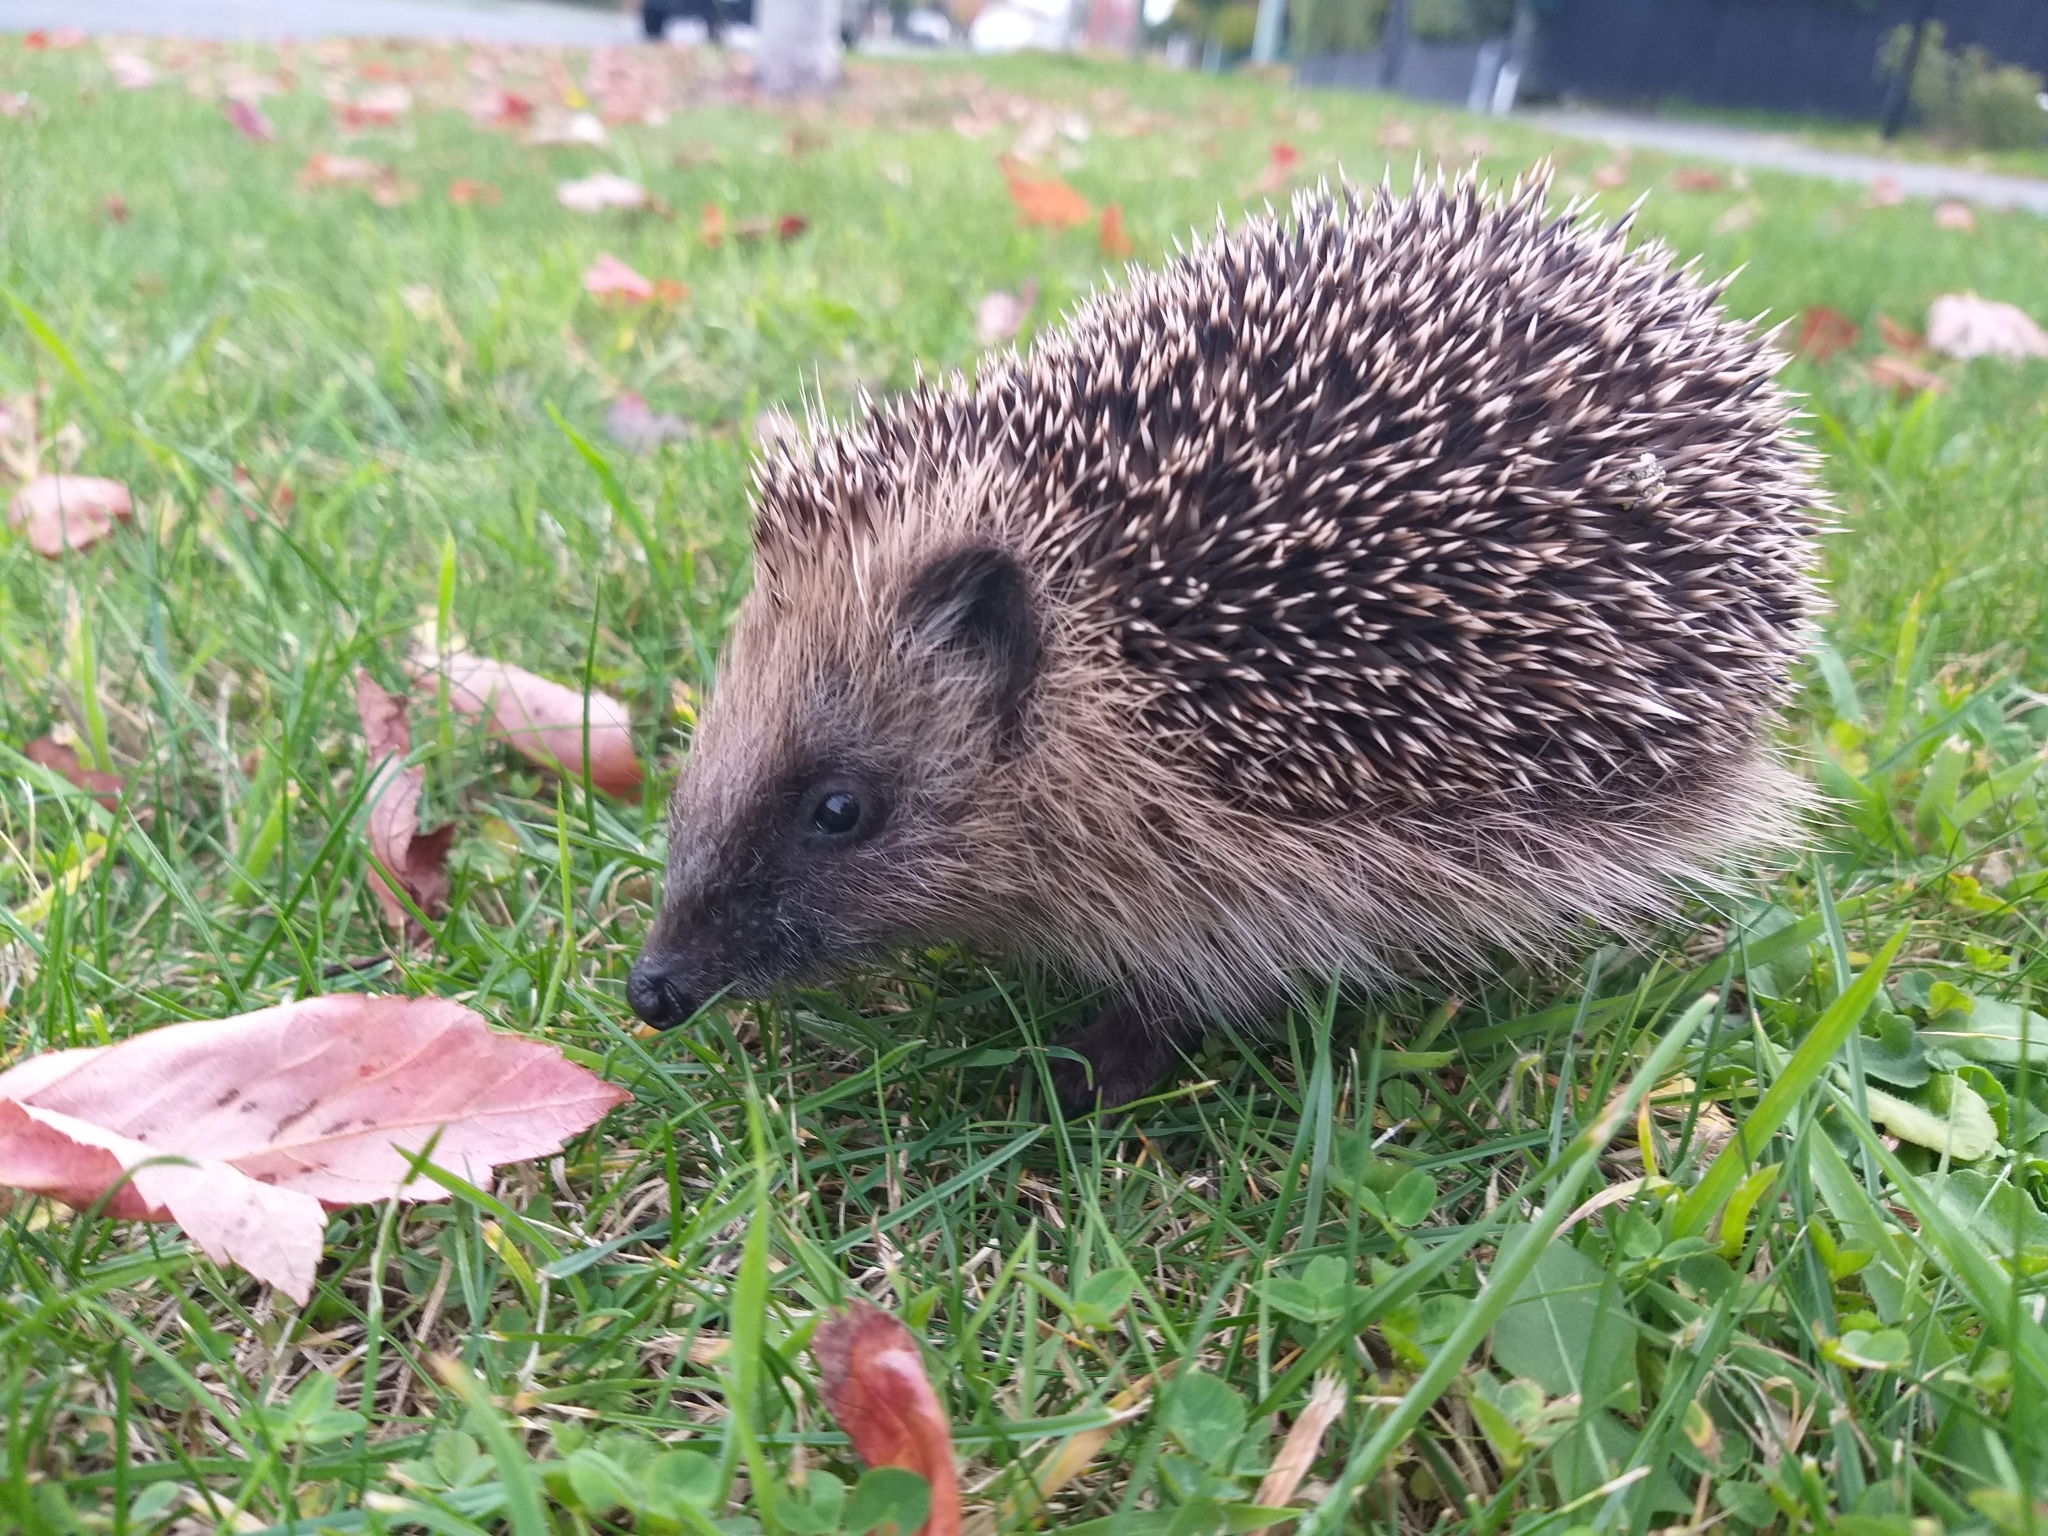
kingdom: Animalia
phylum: Chordata
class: Mammalia
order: Erinaceomorpha
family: Erinaceidae
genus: Erinaceus
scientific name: Erinaceus europaeus
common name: West european hedgehog
